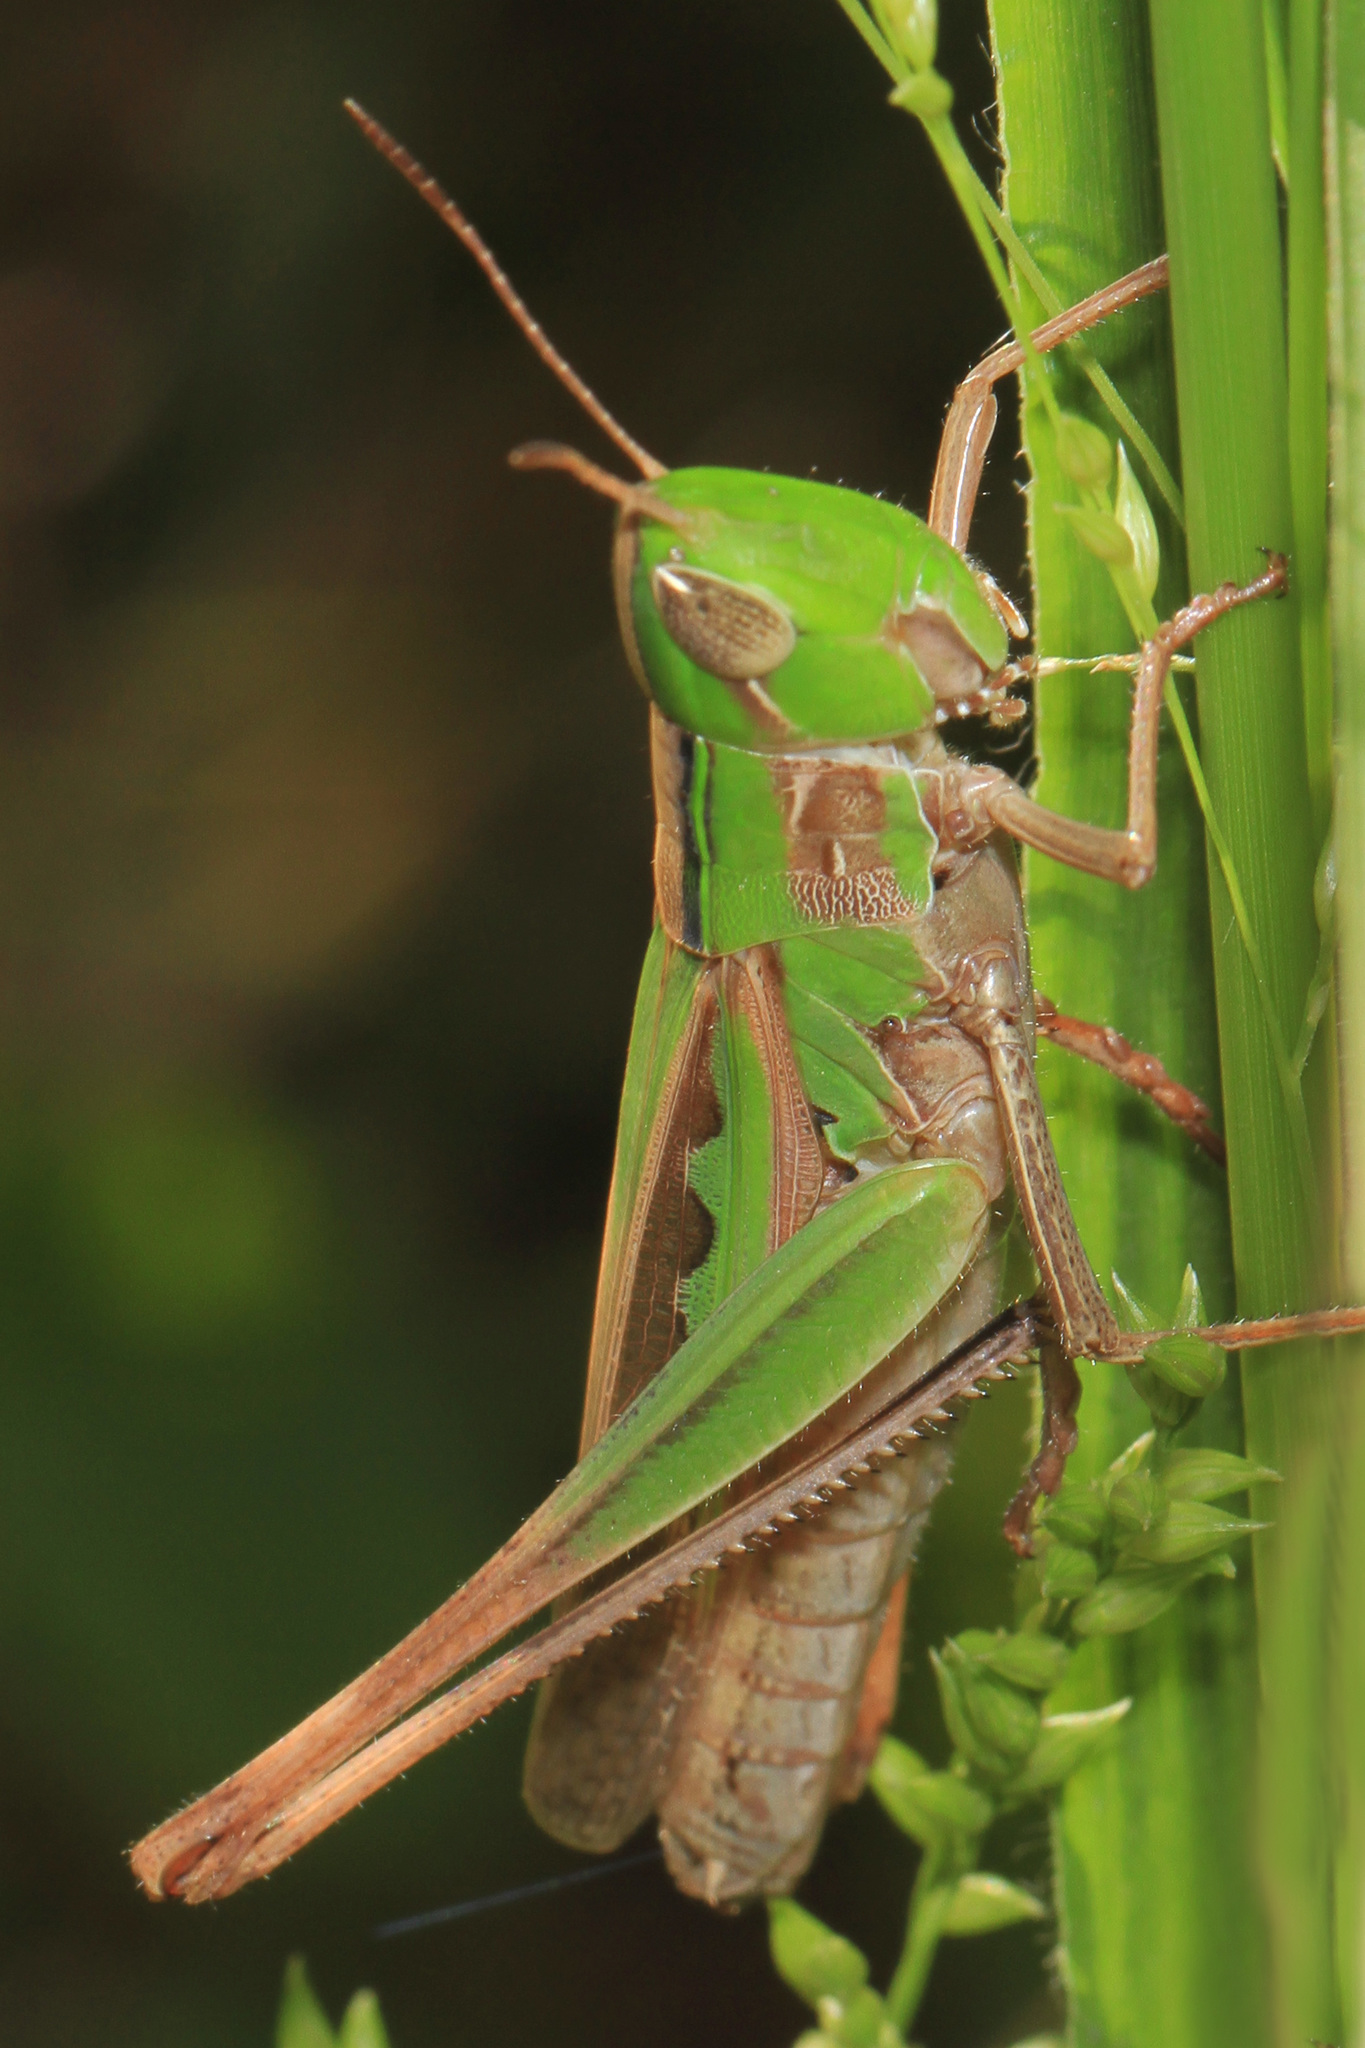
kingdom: Animalia
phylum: Arthropoda
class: Insecta
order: Orthoptera
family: Acrididae
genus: Syrbula
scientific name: Syrbula admirabilis
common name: Handsome grasshopper
